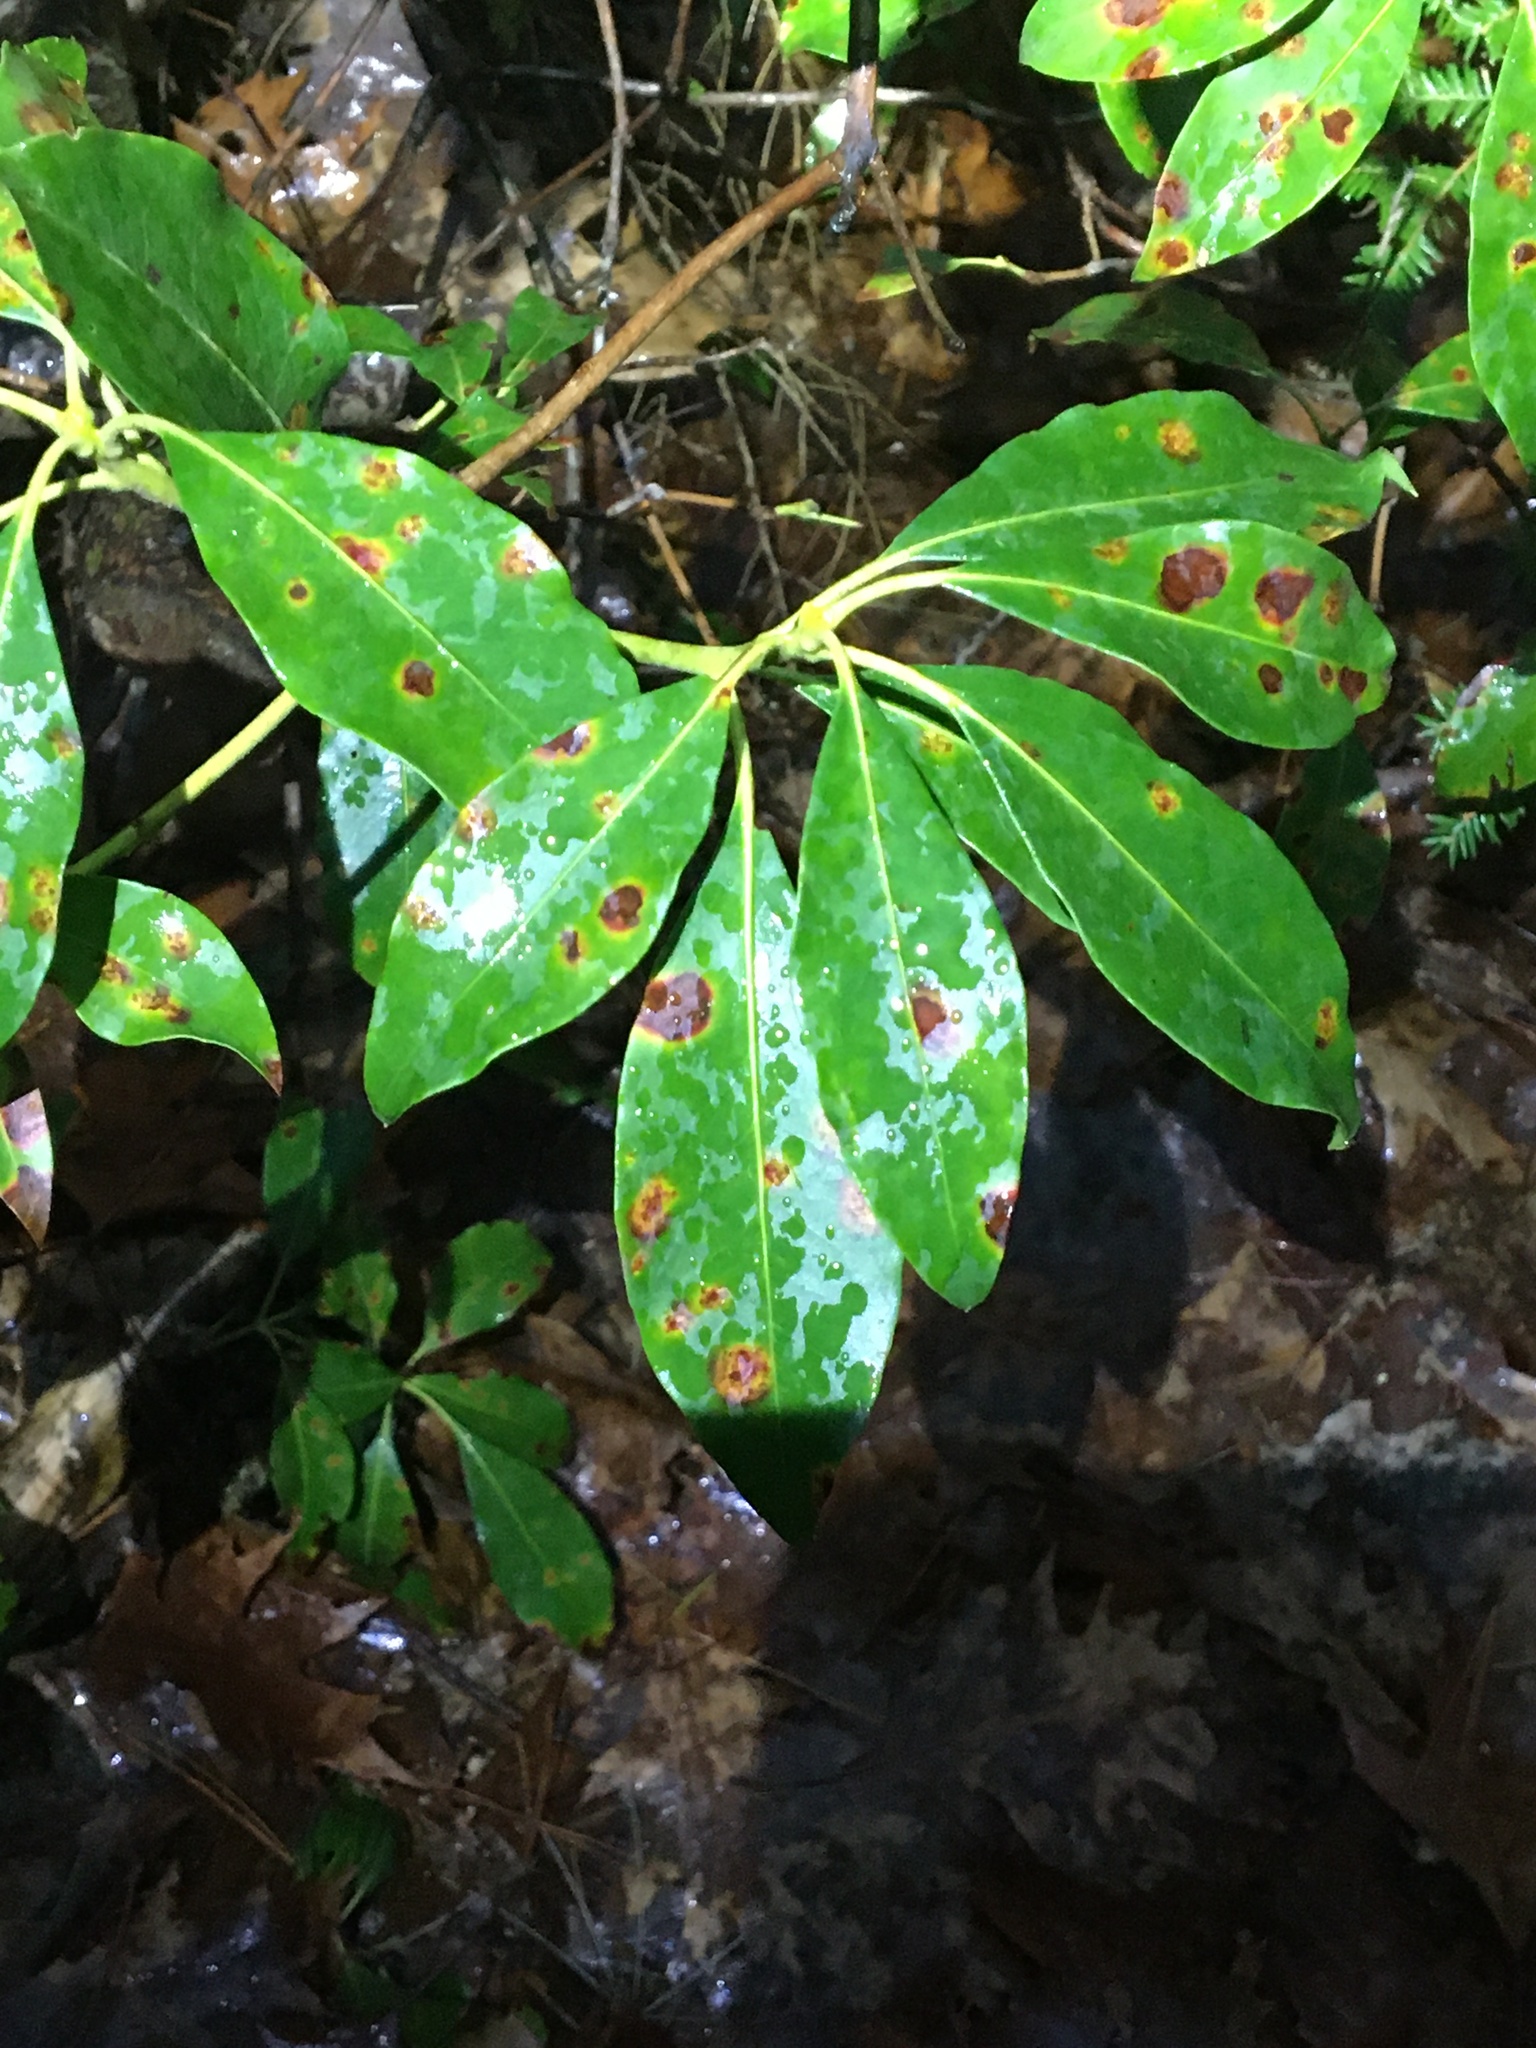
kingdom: Fungi
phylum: Ascomycota
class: Sordariomycetes
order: Diaporthales
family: Diaporthaceae
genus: Diaporthe
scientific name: Diaporthe kalmiae
